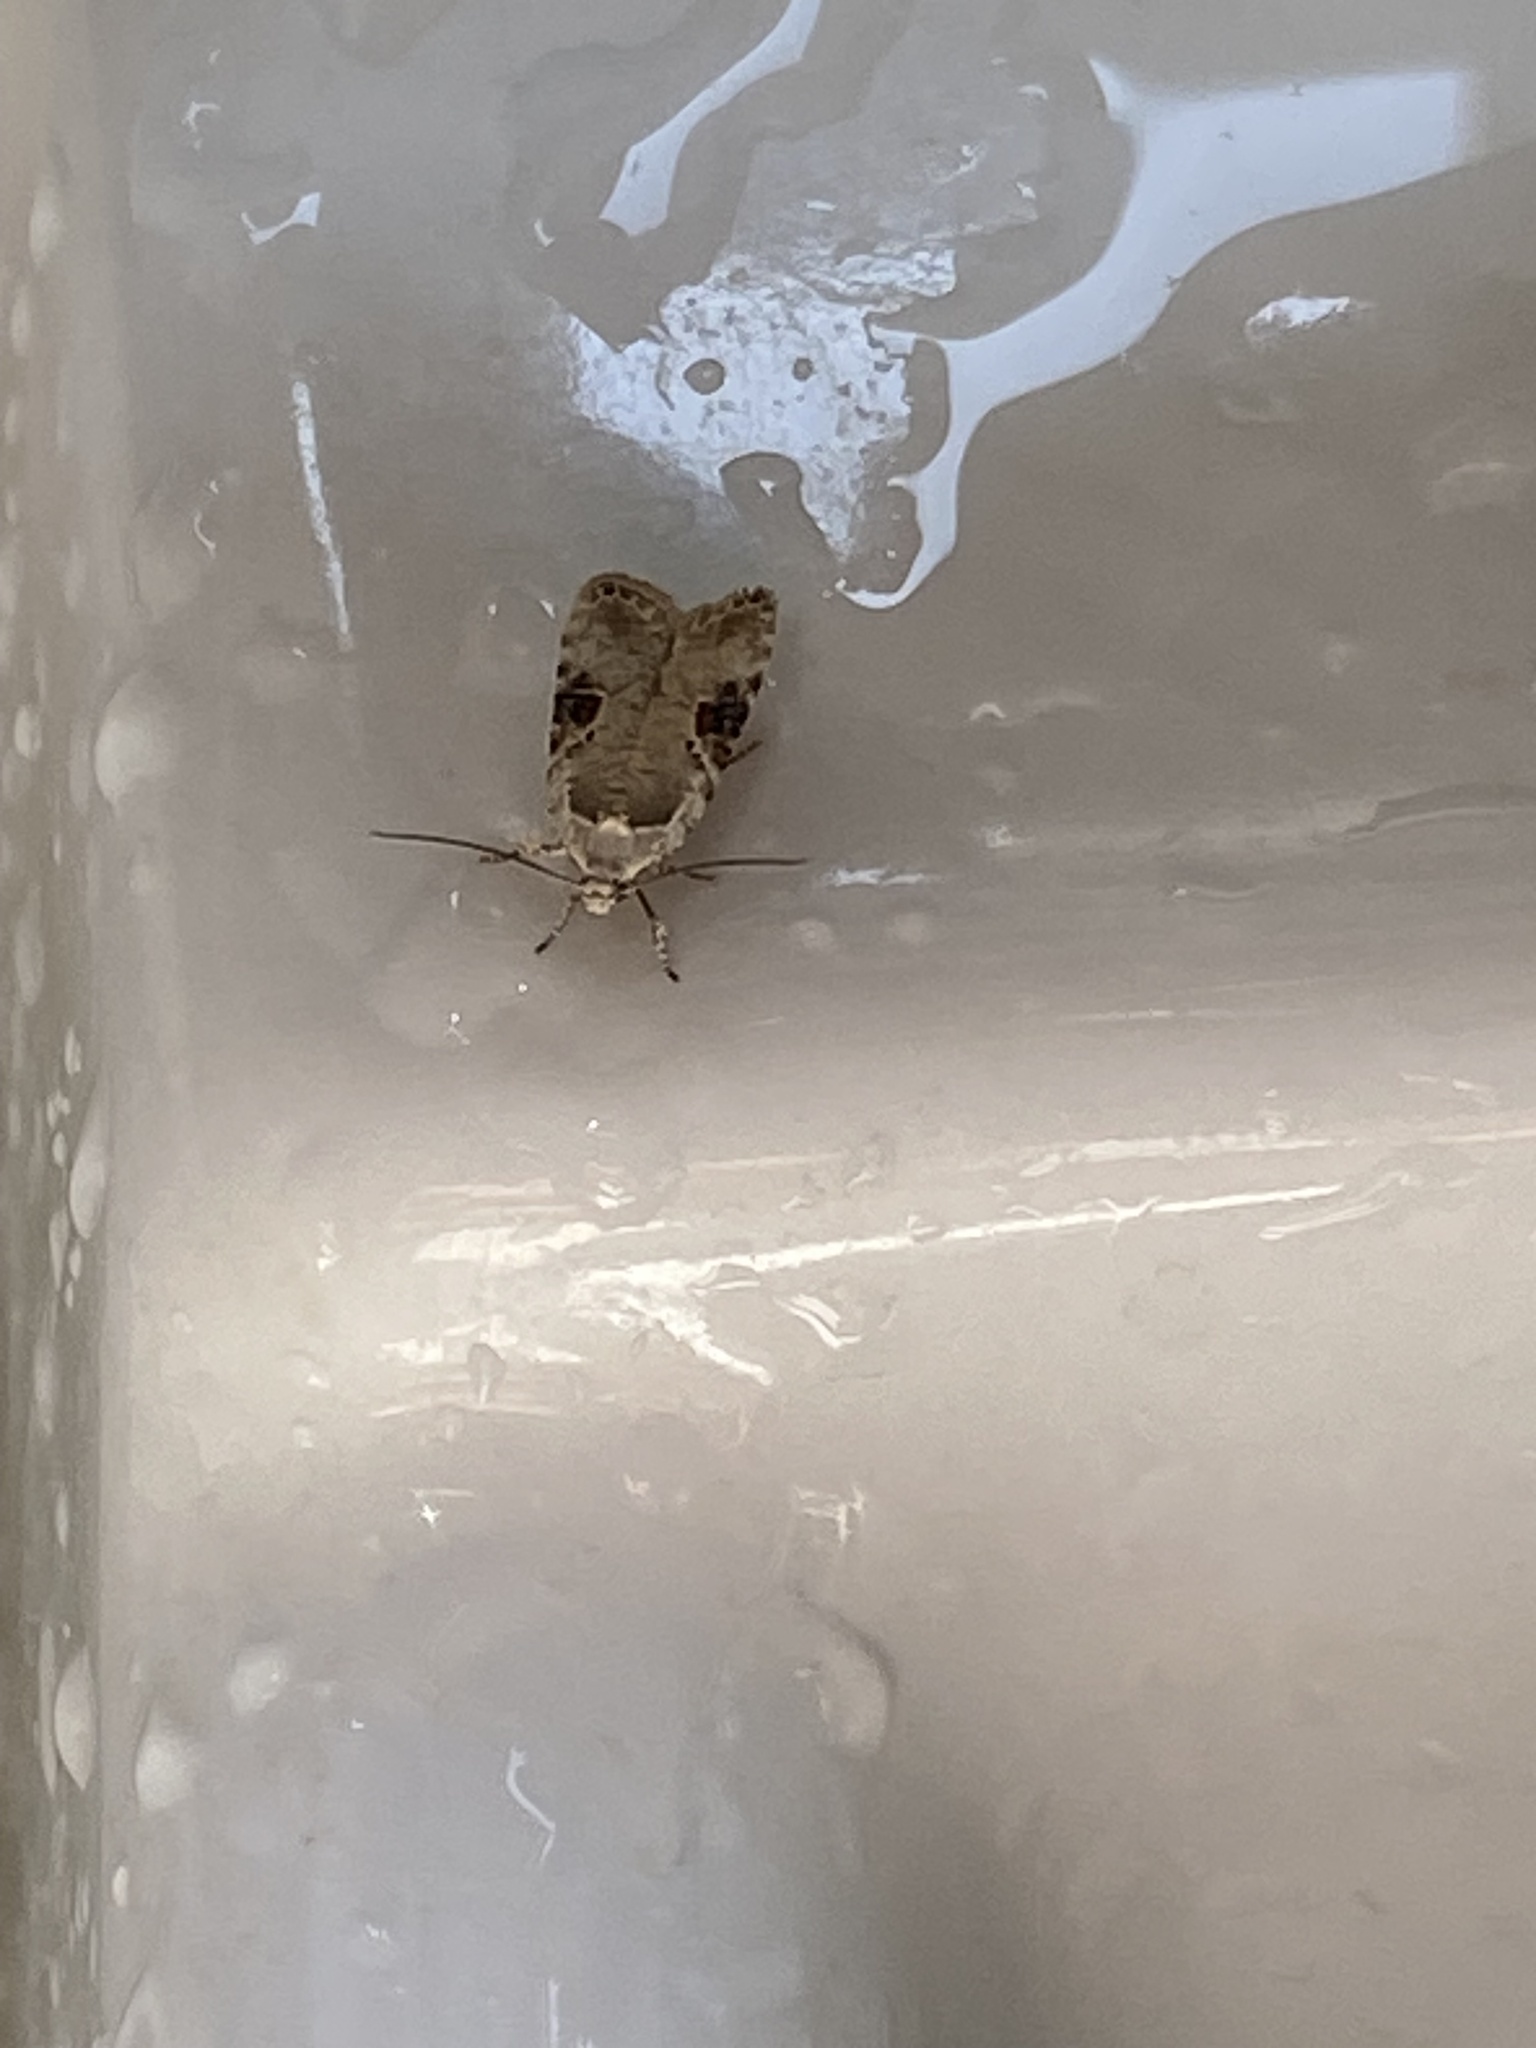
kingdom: Animalia
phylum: Arthropoda
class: Insecta
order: Lepidoptera
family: Depressariidae
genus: Agonopterix
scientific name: Agonopterix alstroemeriana
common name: Moth
